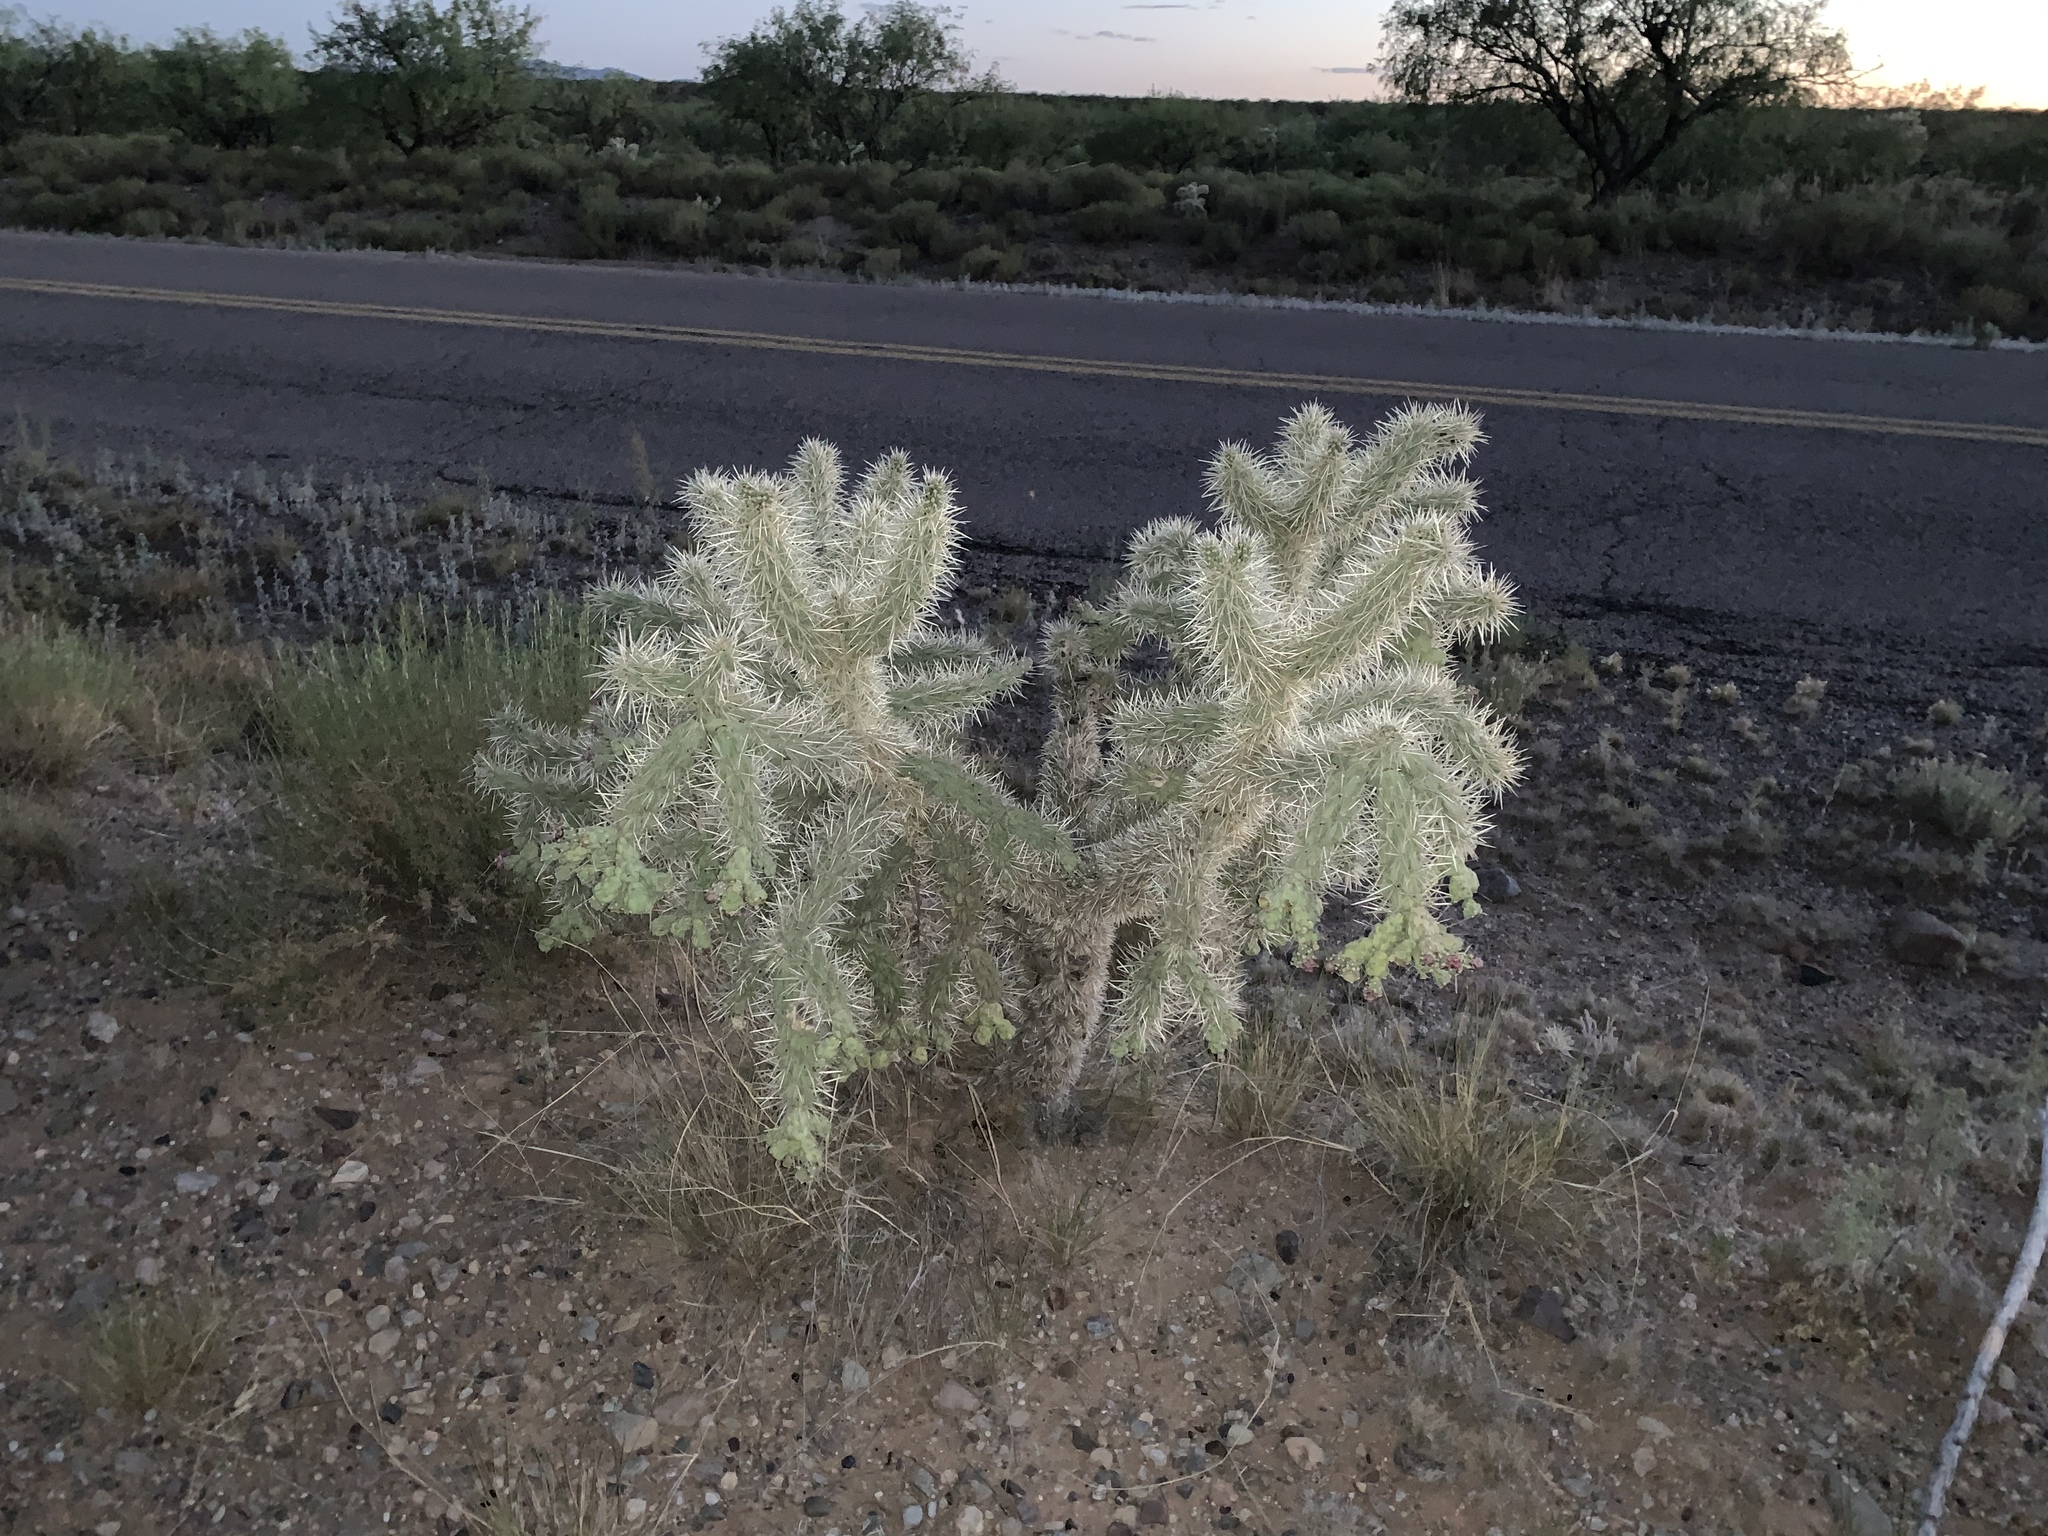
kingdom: Plantae
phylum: Tracheophyta
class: Magnoliopsida
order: Caryophyllales
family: Cactaceae
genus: Cylindropuntia
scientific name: Cylindropuntia fulgida
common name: Jumping cholla
